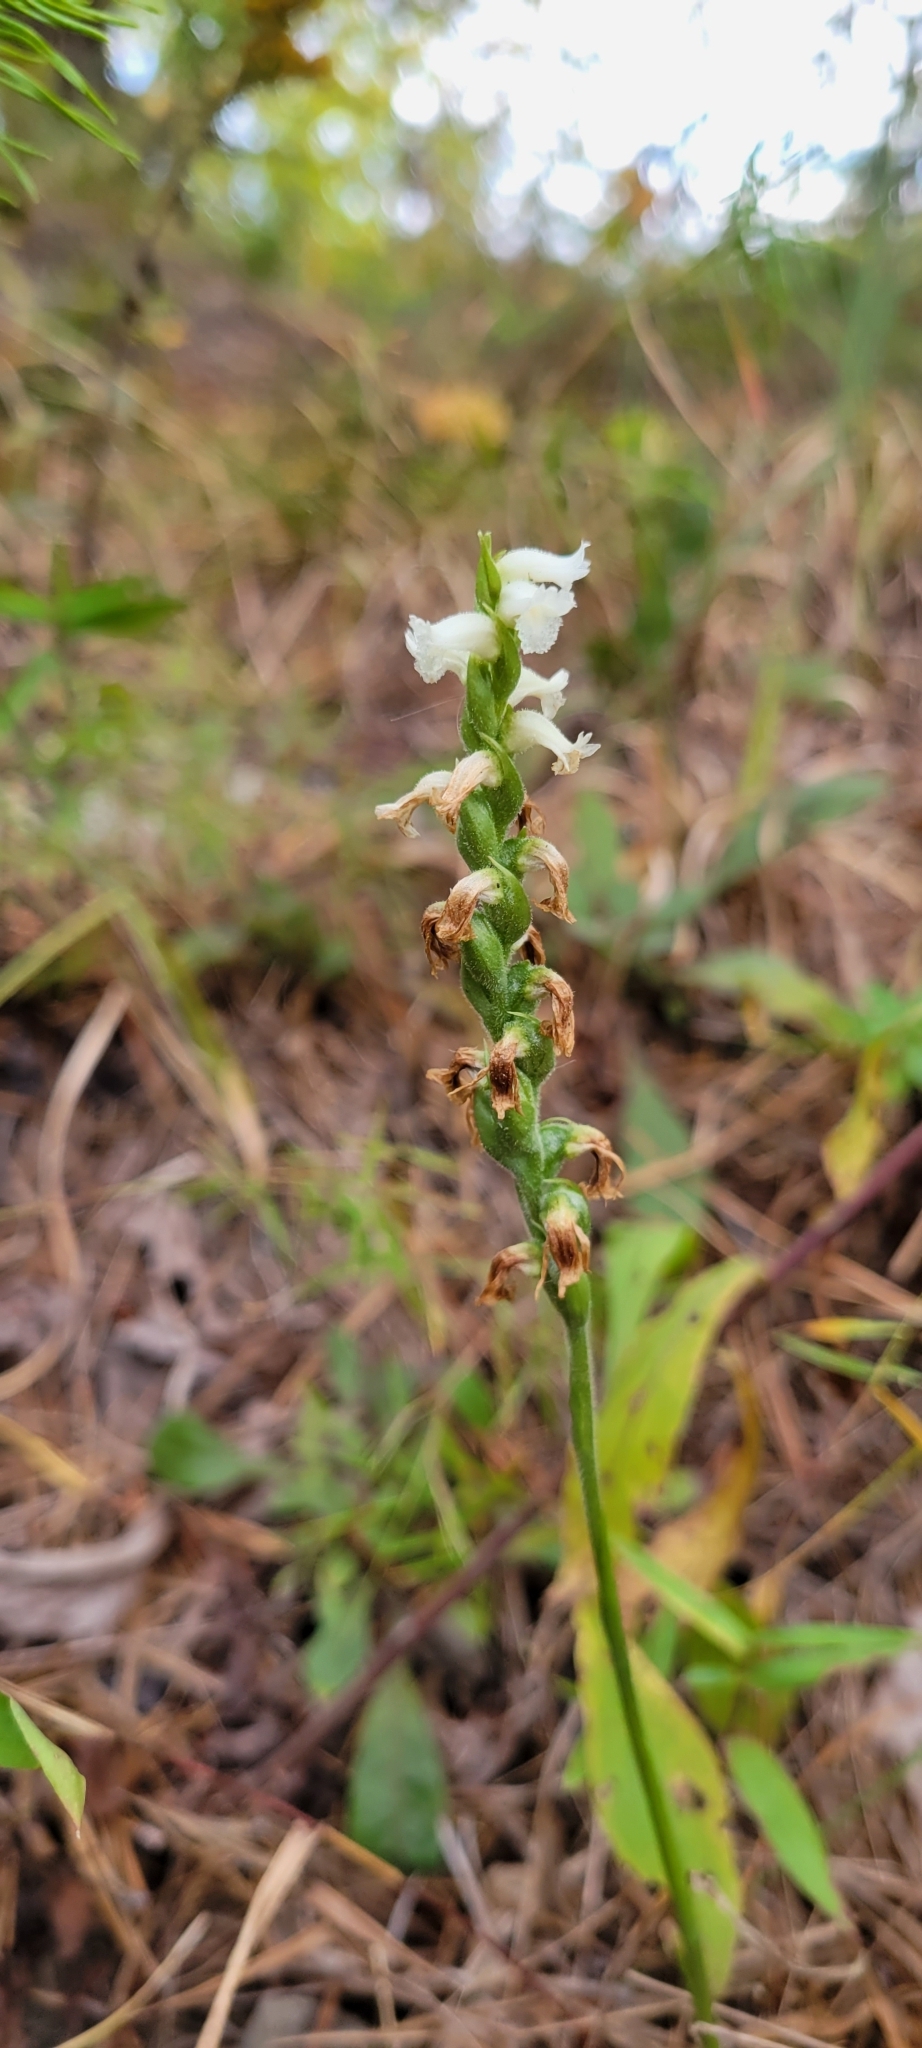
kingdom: Plantae
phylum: Tracheophyta
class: Liliopsida
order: Asparagales
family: Orchidaceae
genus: Spiranthes
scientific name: Spiranthes ochroleuca
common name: Yellow ladies'-tresses
